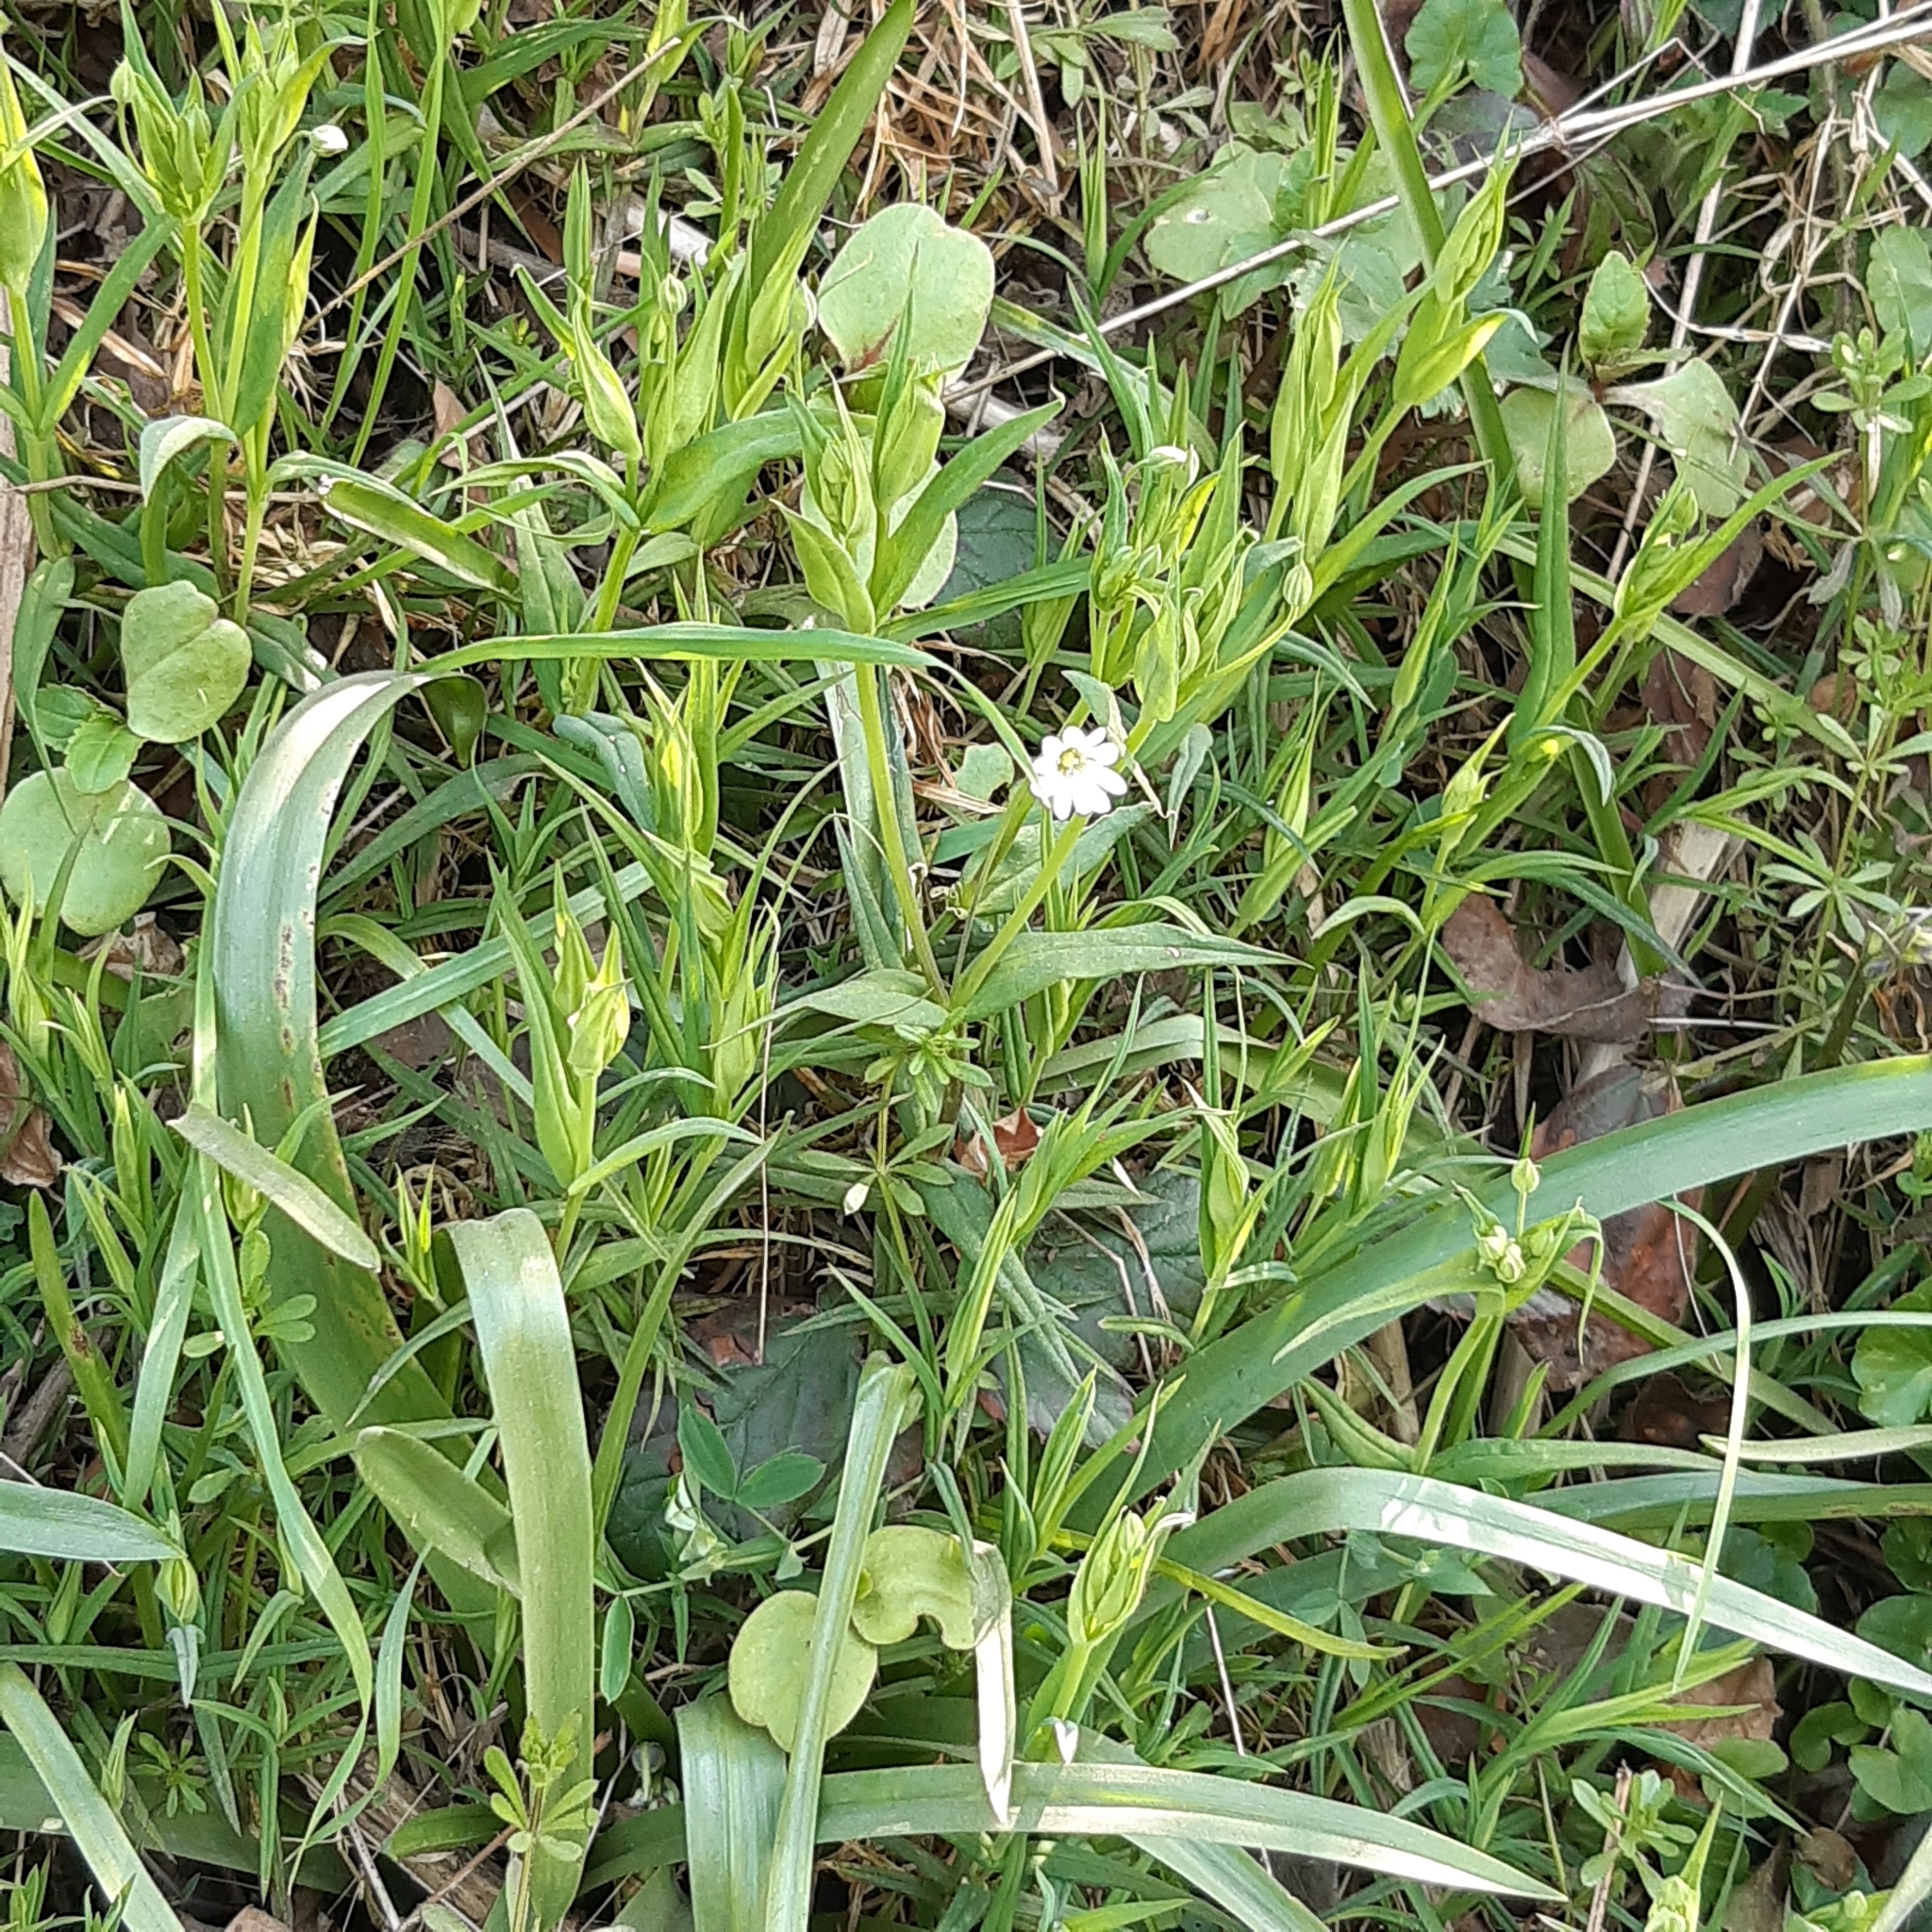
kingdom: Plantae
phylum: Tracheophyta
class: Magnoliopsida
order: Caryophyllales
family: Caryophyllaceae
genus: Rabelera
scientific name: Rabelera holostea
